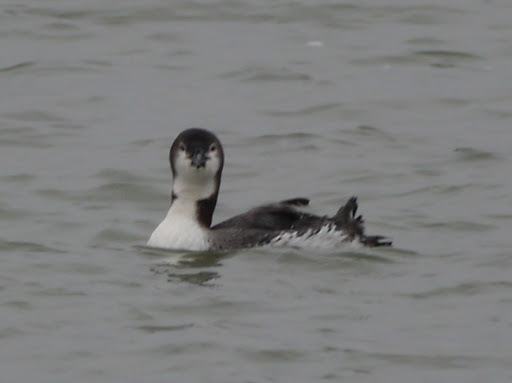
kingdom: Animalia
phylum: Chordata
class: Aves
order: Gaviiformes
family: Gaviidae
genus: Gavia
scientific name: Gavia immer
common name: Common loon
